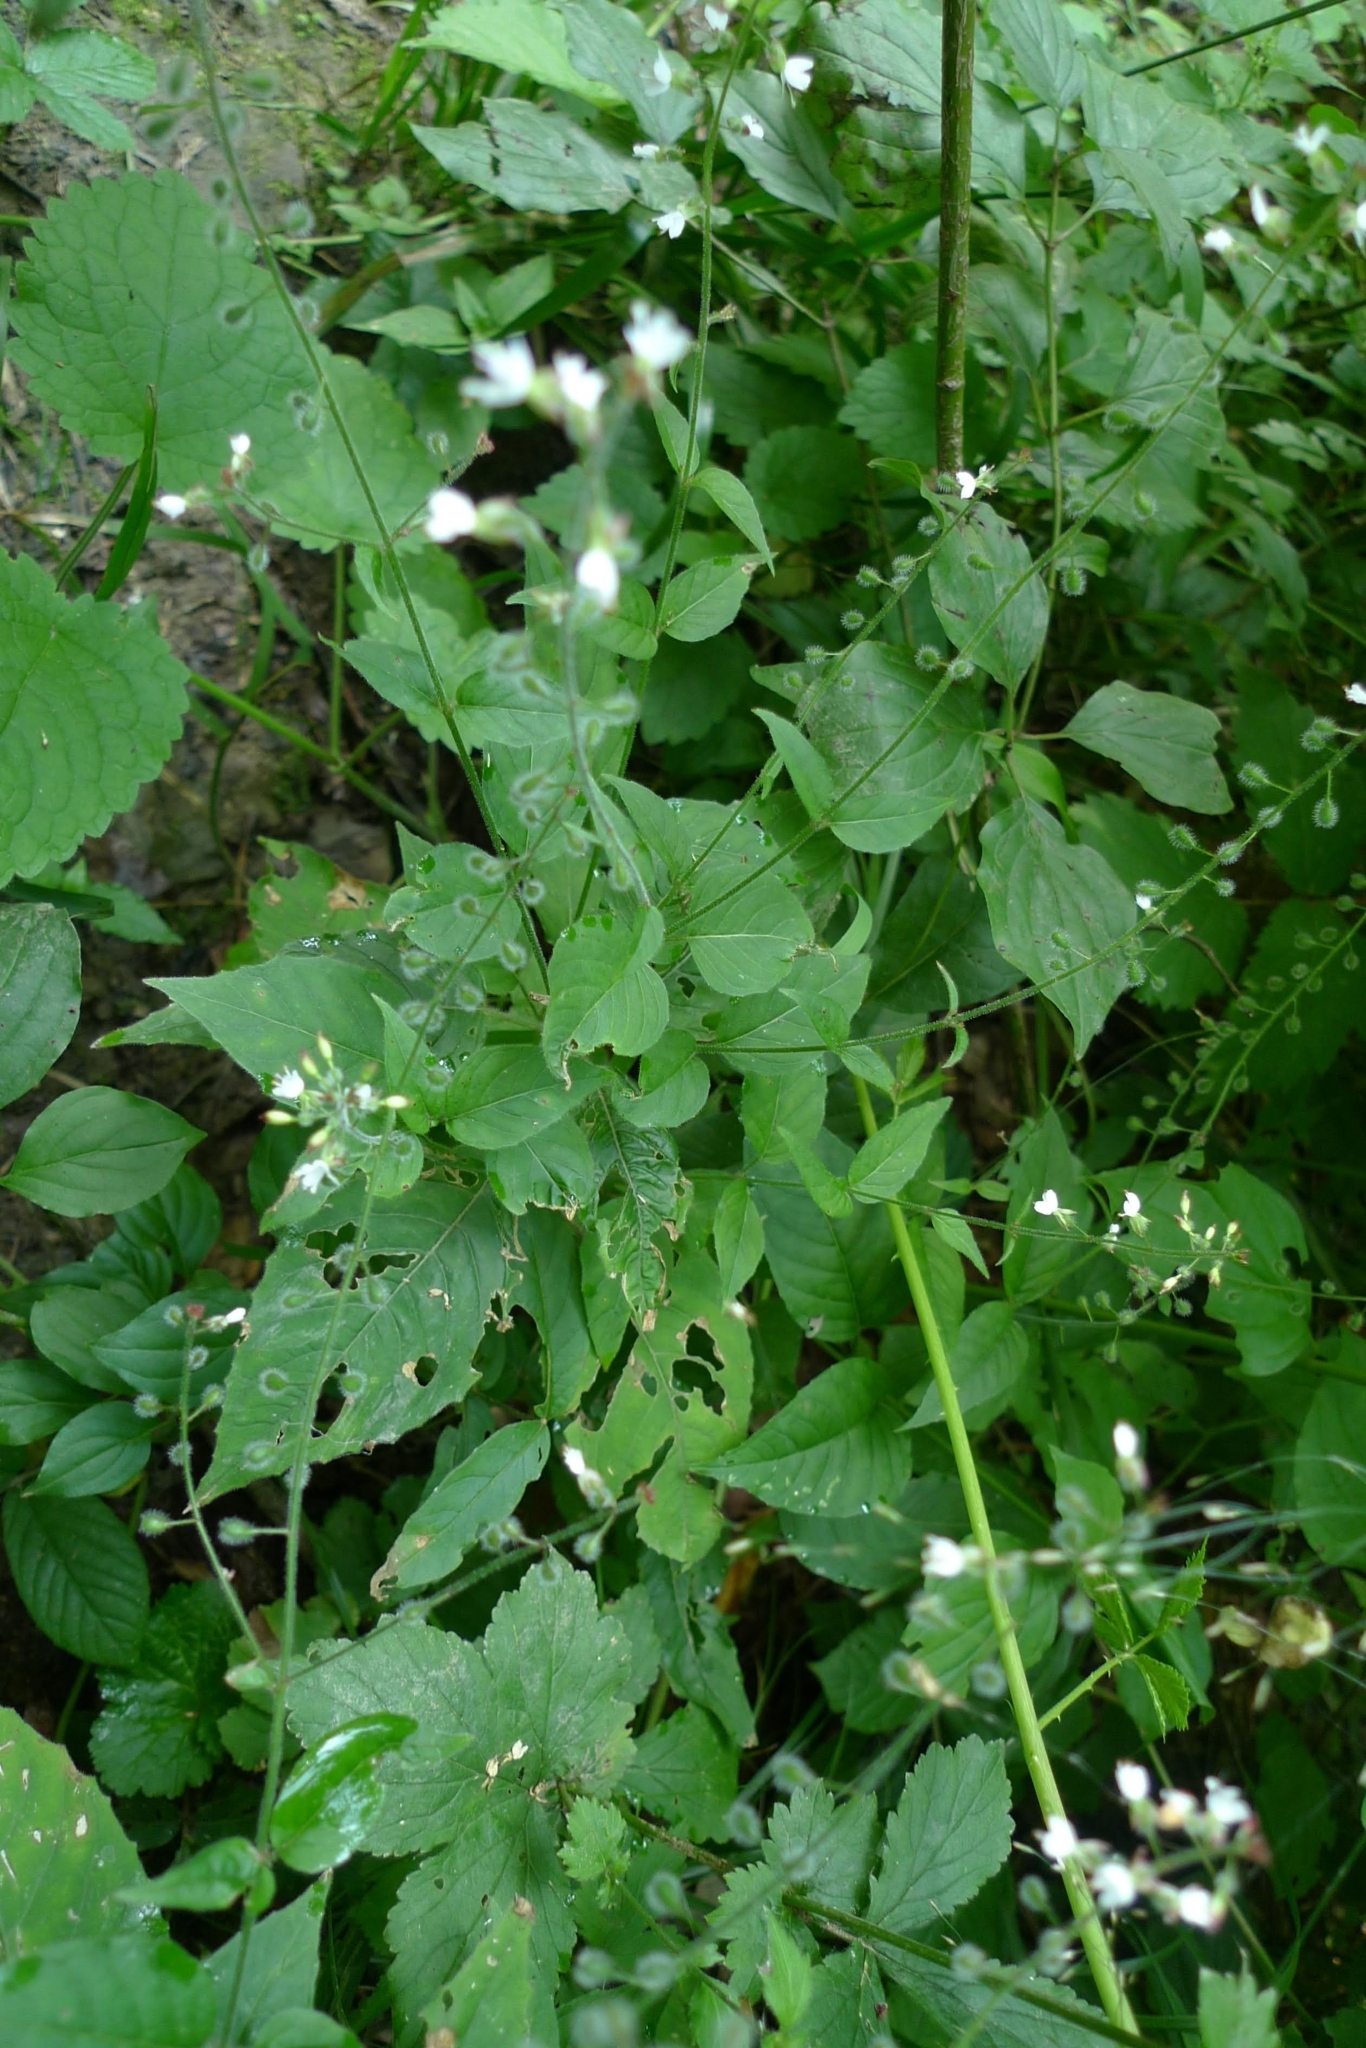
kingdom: Plantae
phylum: Tracheophyta
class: Magnoliopsida
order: Myrtales
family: Onagraceae
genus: Circaea
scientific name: Circaea lutetiana
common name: Enchanter's-nightshade
